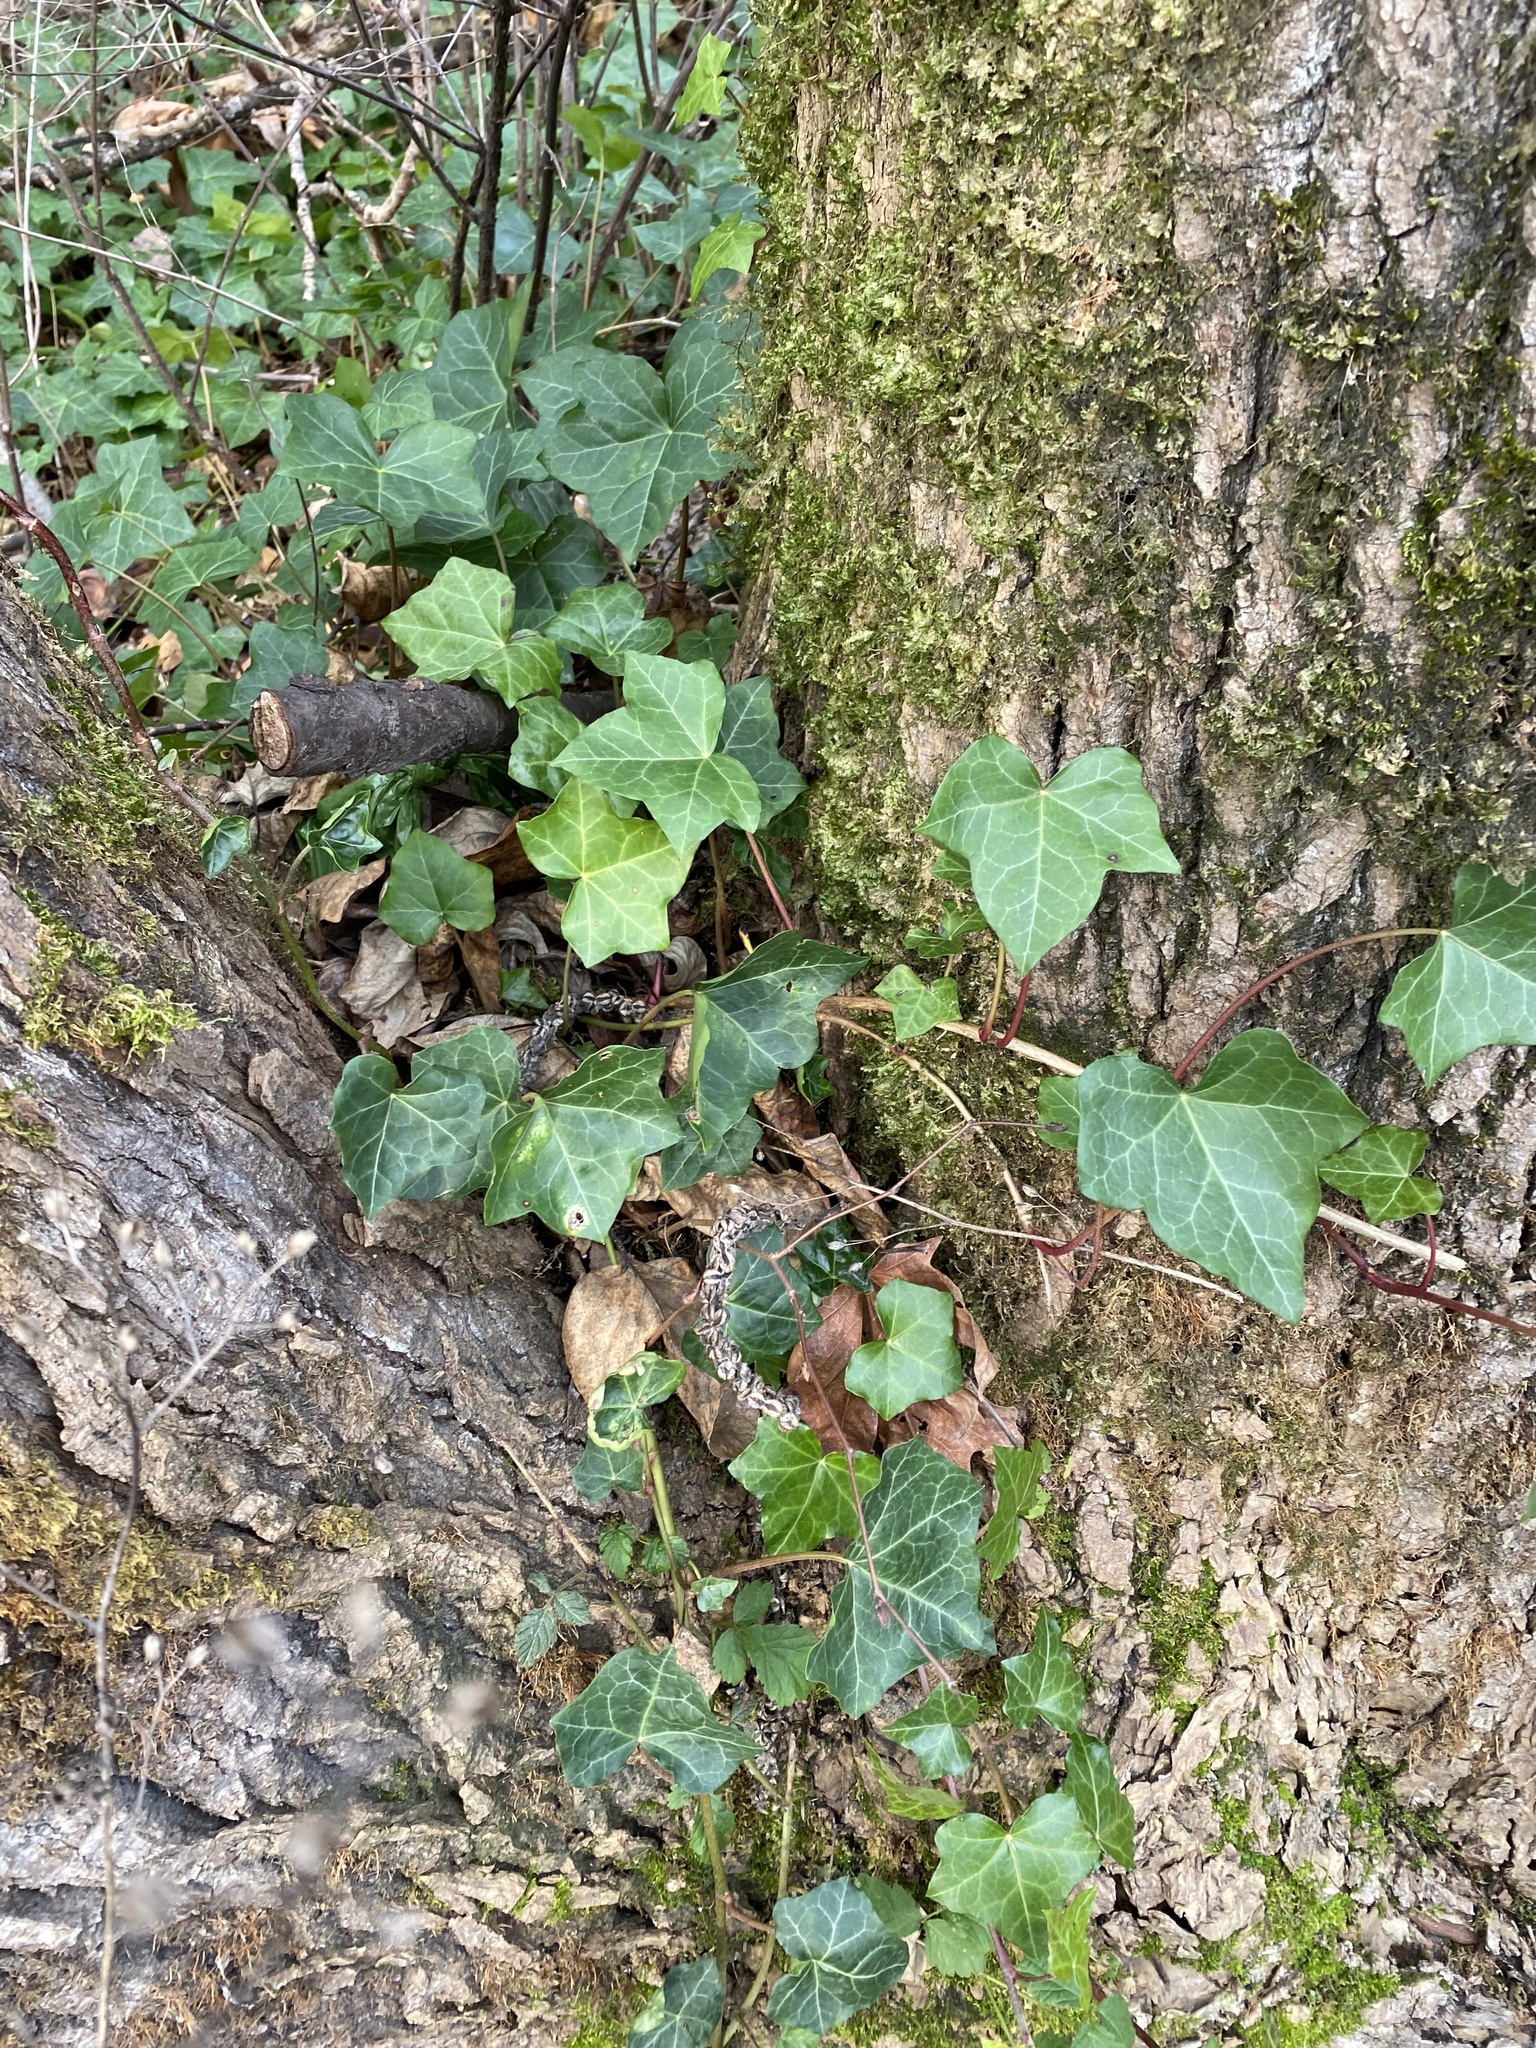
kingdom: Plantae
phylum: Tracheophyta
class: Magnoliopsida
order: Apiales
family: Araliaceae
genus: Hedera
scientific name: Hedera helix
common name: Ivy
